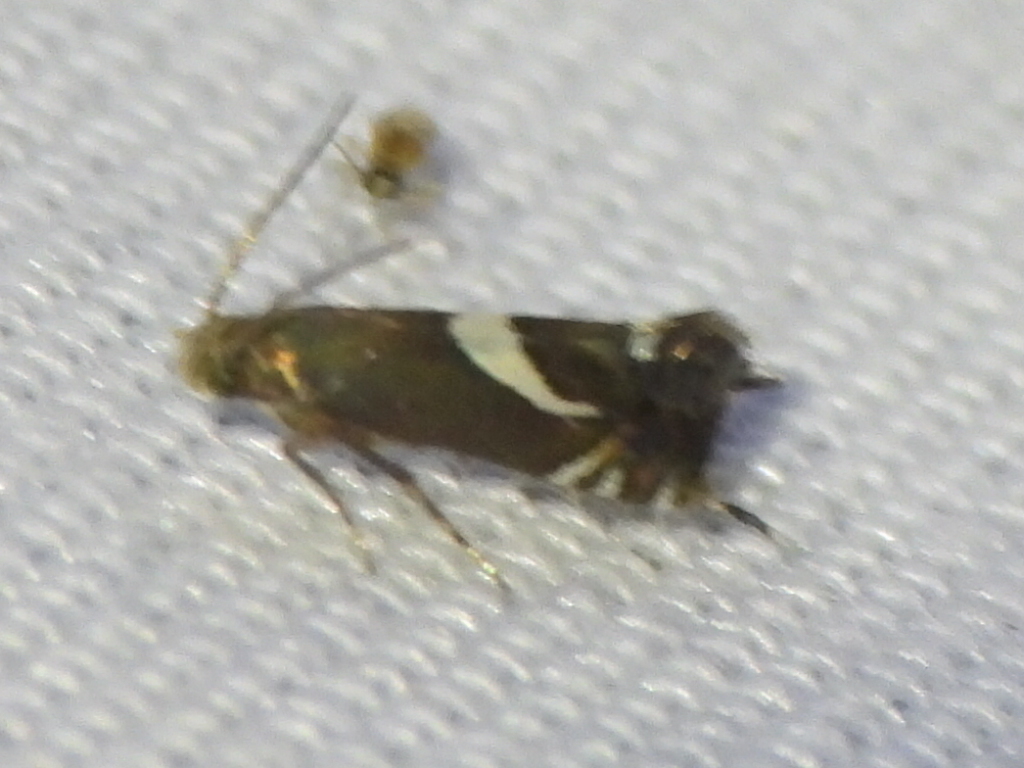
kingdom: Animalia
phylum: Arthropoda
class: Insecta
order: Lepidoptera
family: Glyphipterigidae
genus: Glyphipterix
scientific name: Glyphipterix Diploschizia impigritella
